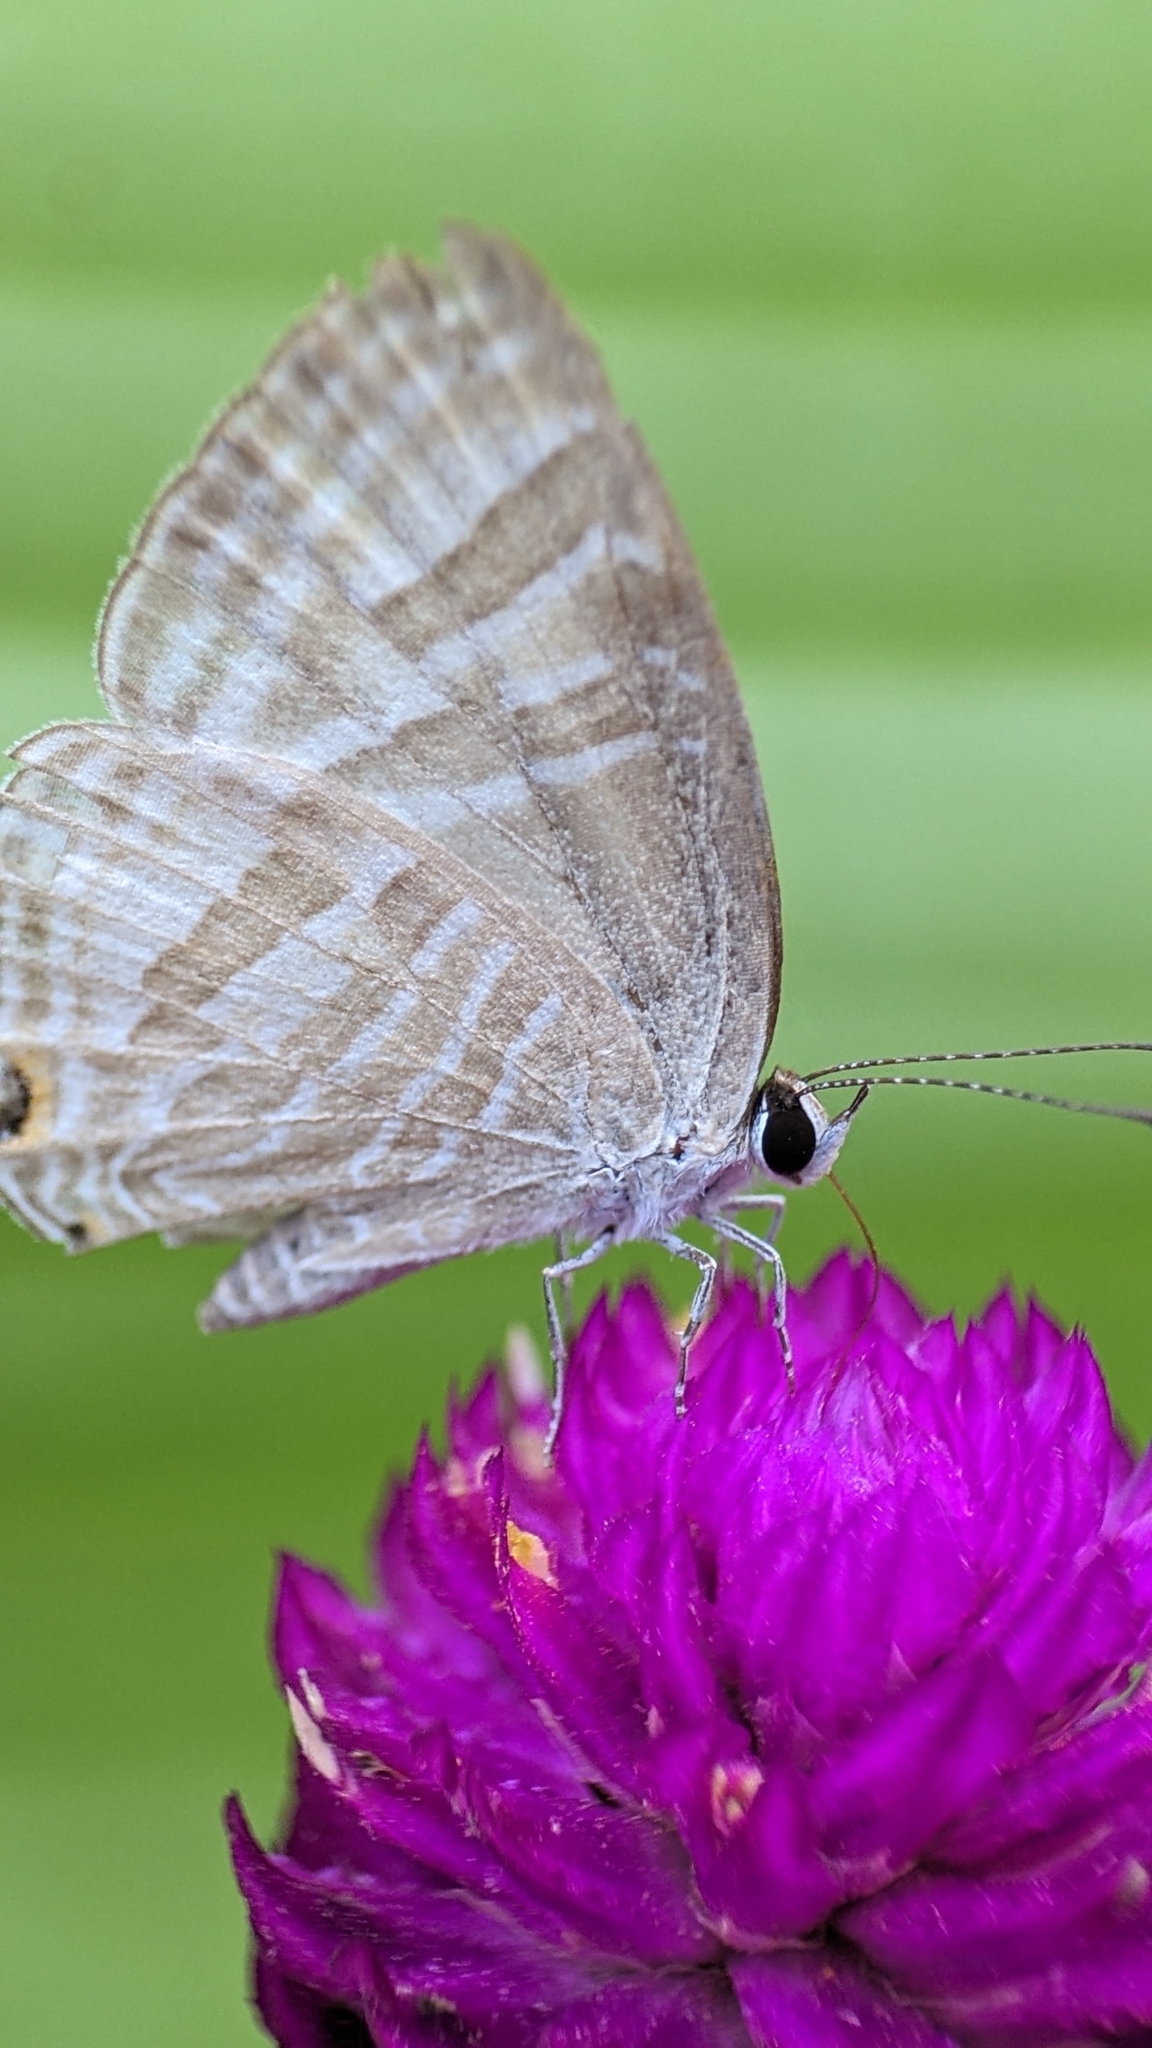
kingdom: Animalia
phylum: Arthropoda
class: Insecta
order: Lepidoptera
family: Lycaenidae
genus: Jamides
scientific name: Jamides celeno
